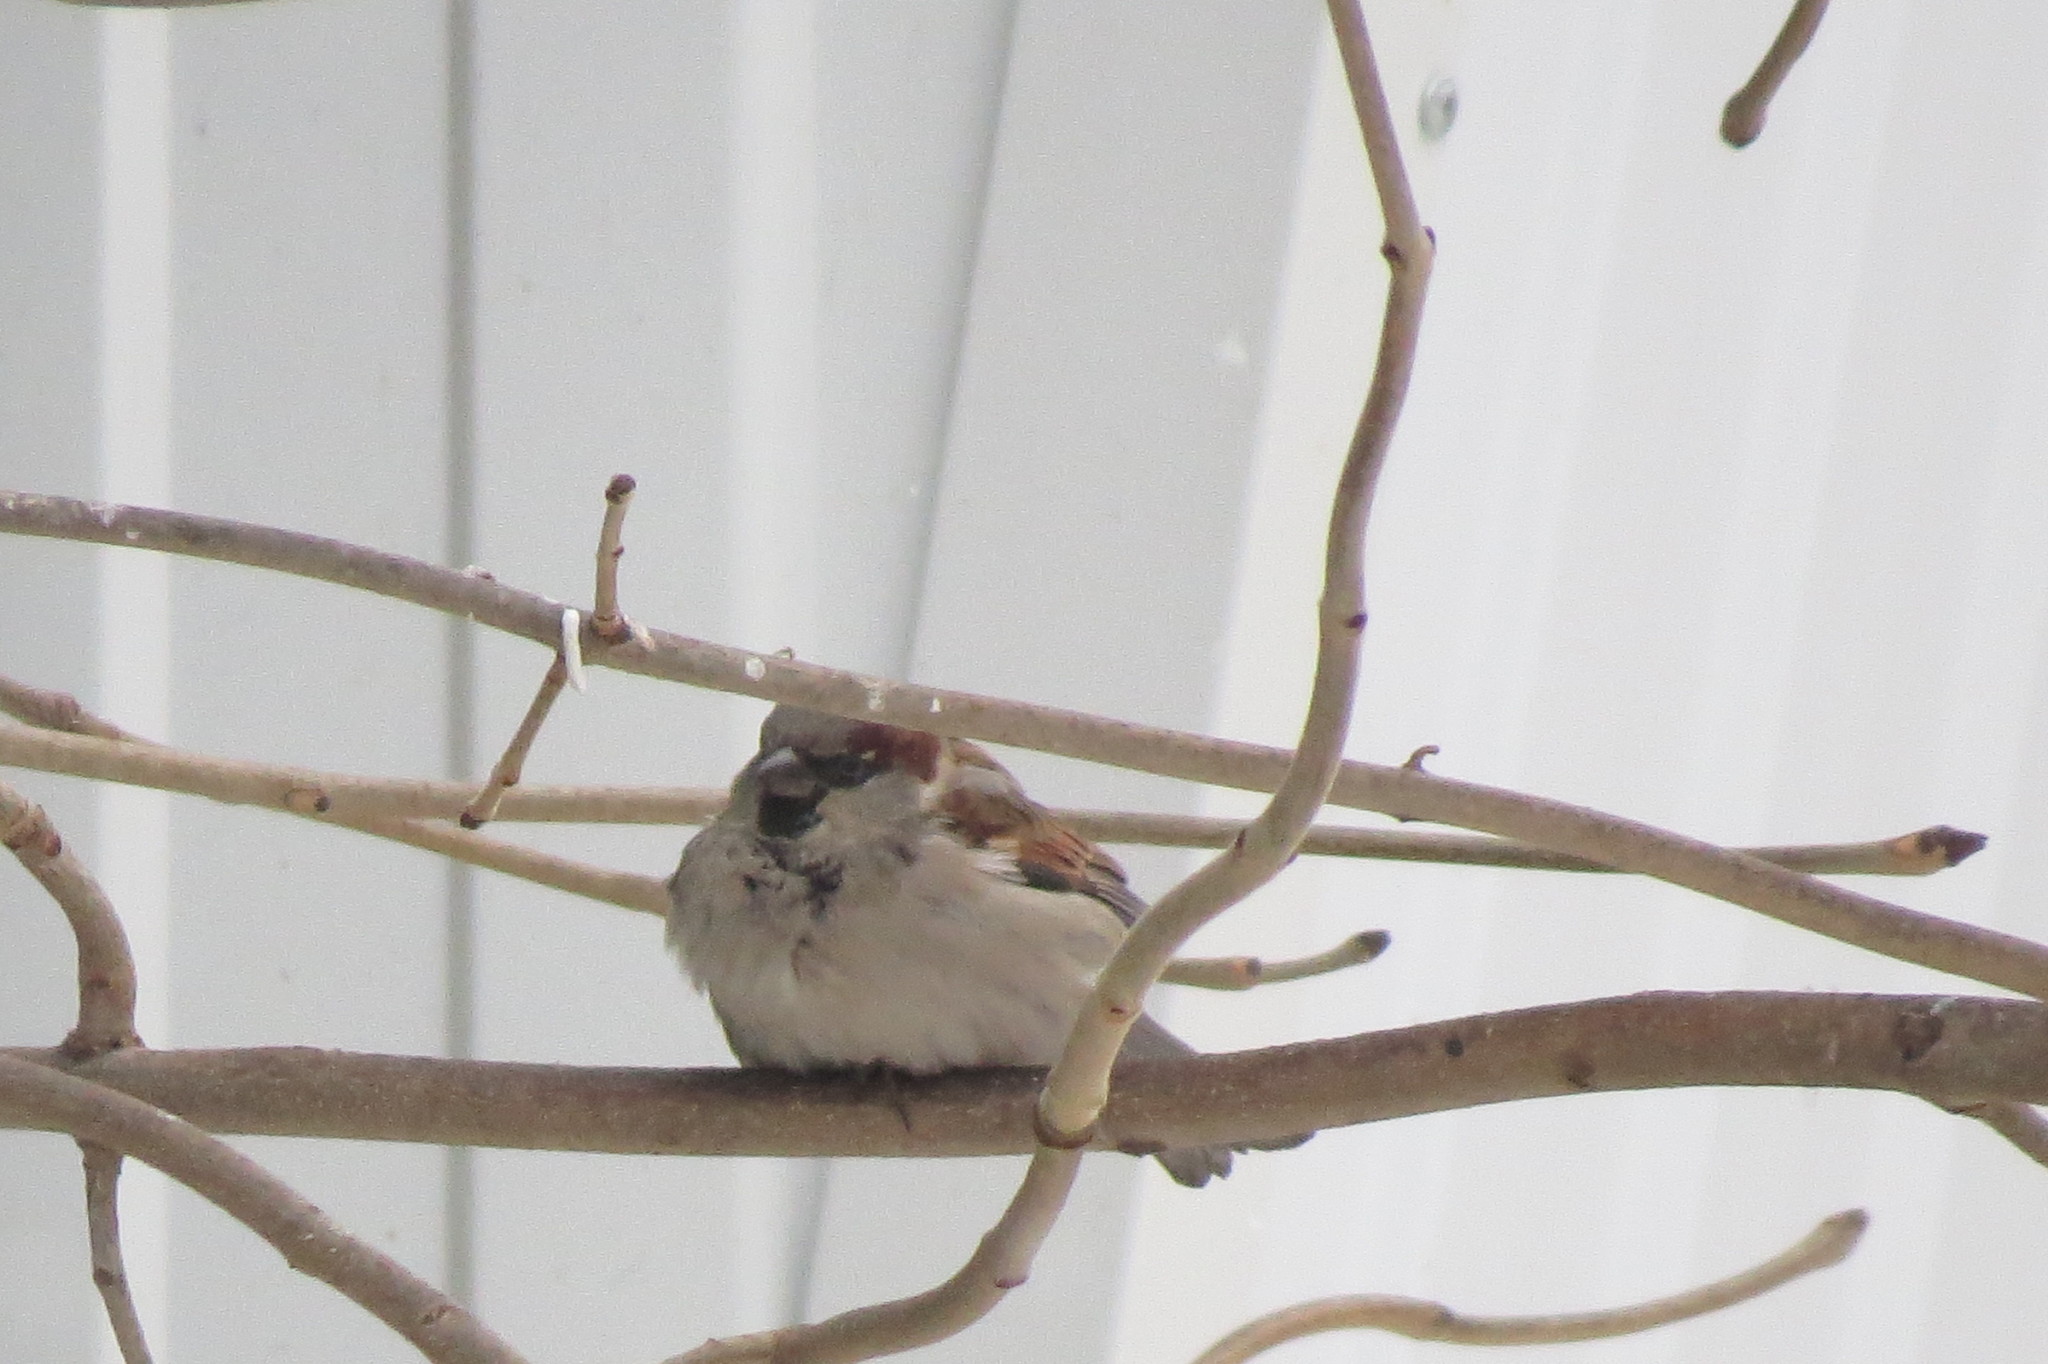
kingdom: Animalia
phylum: Chordata
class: Aves
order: Passeriformes
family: Passeridae
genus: Passer
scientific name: Passer domesticus
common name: House sparrow
